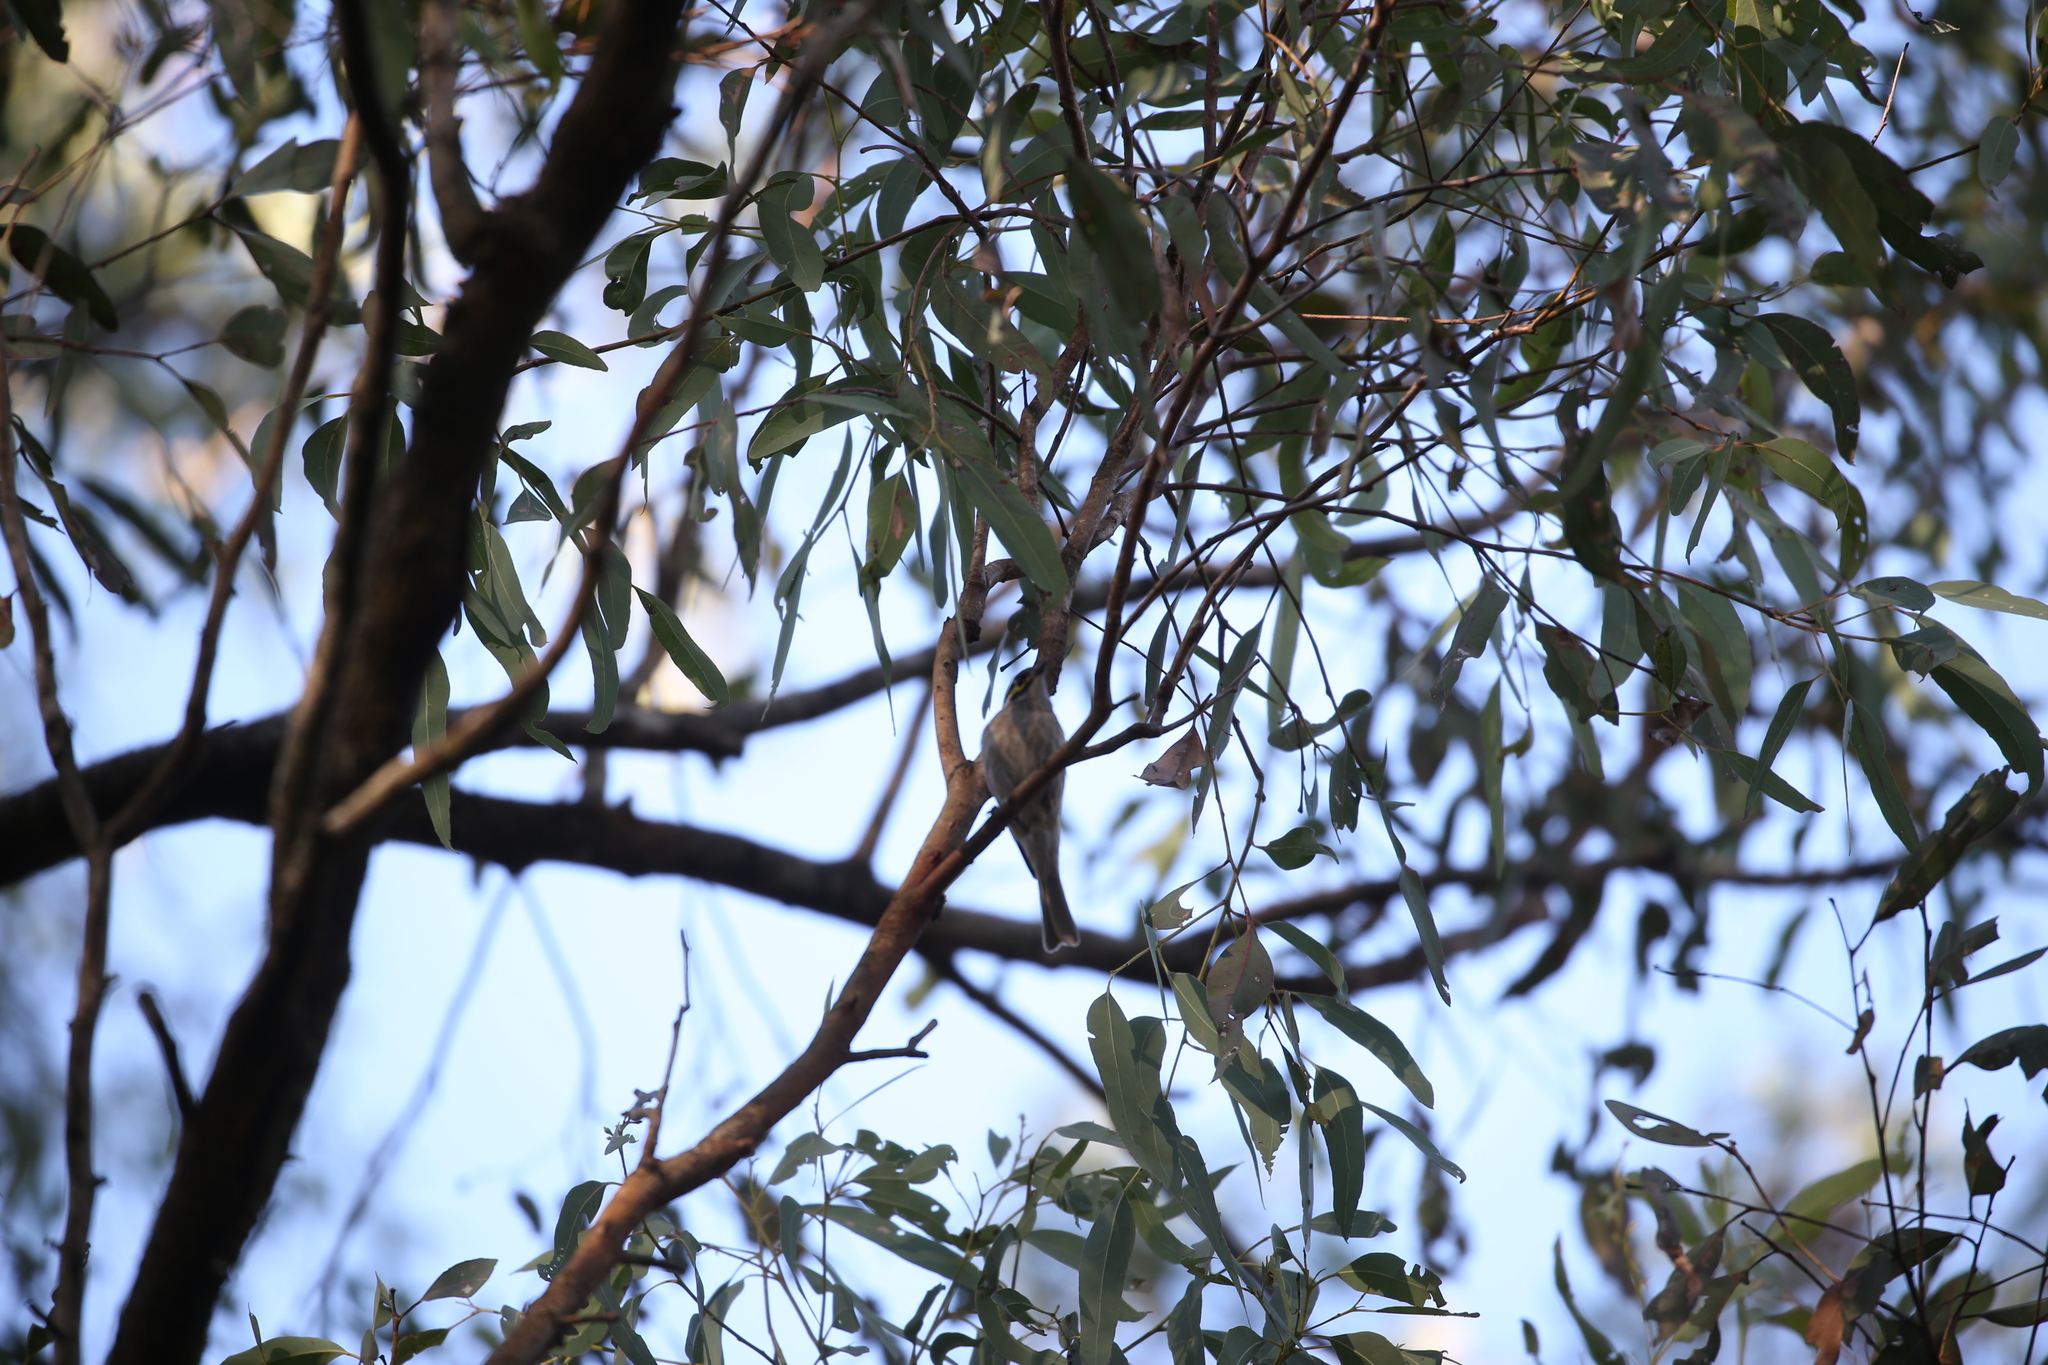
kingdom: Animalia
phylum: Chordata
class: Aves
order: Passeriformes
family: Meliphagidae
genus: Caligavis
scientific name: Caligavis chrysops
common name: Yellow-faced honeyeater
